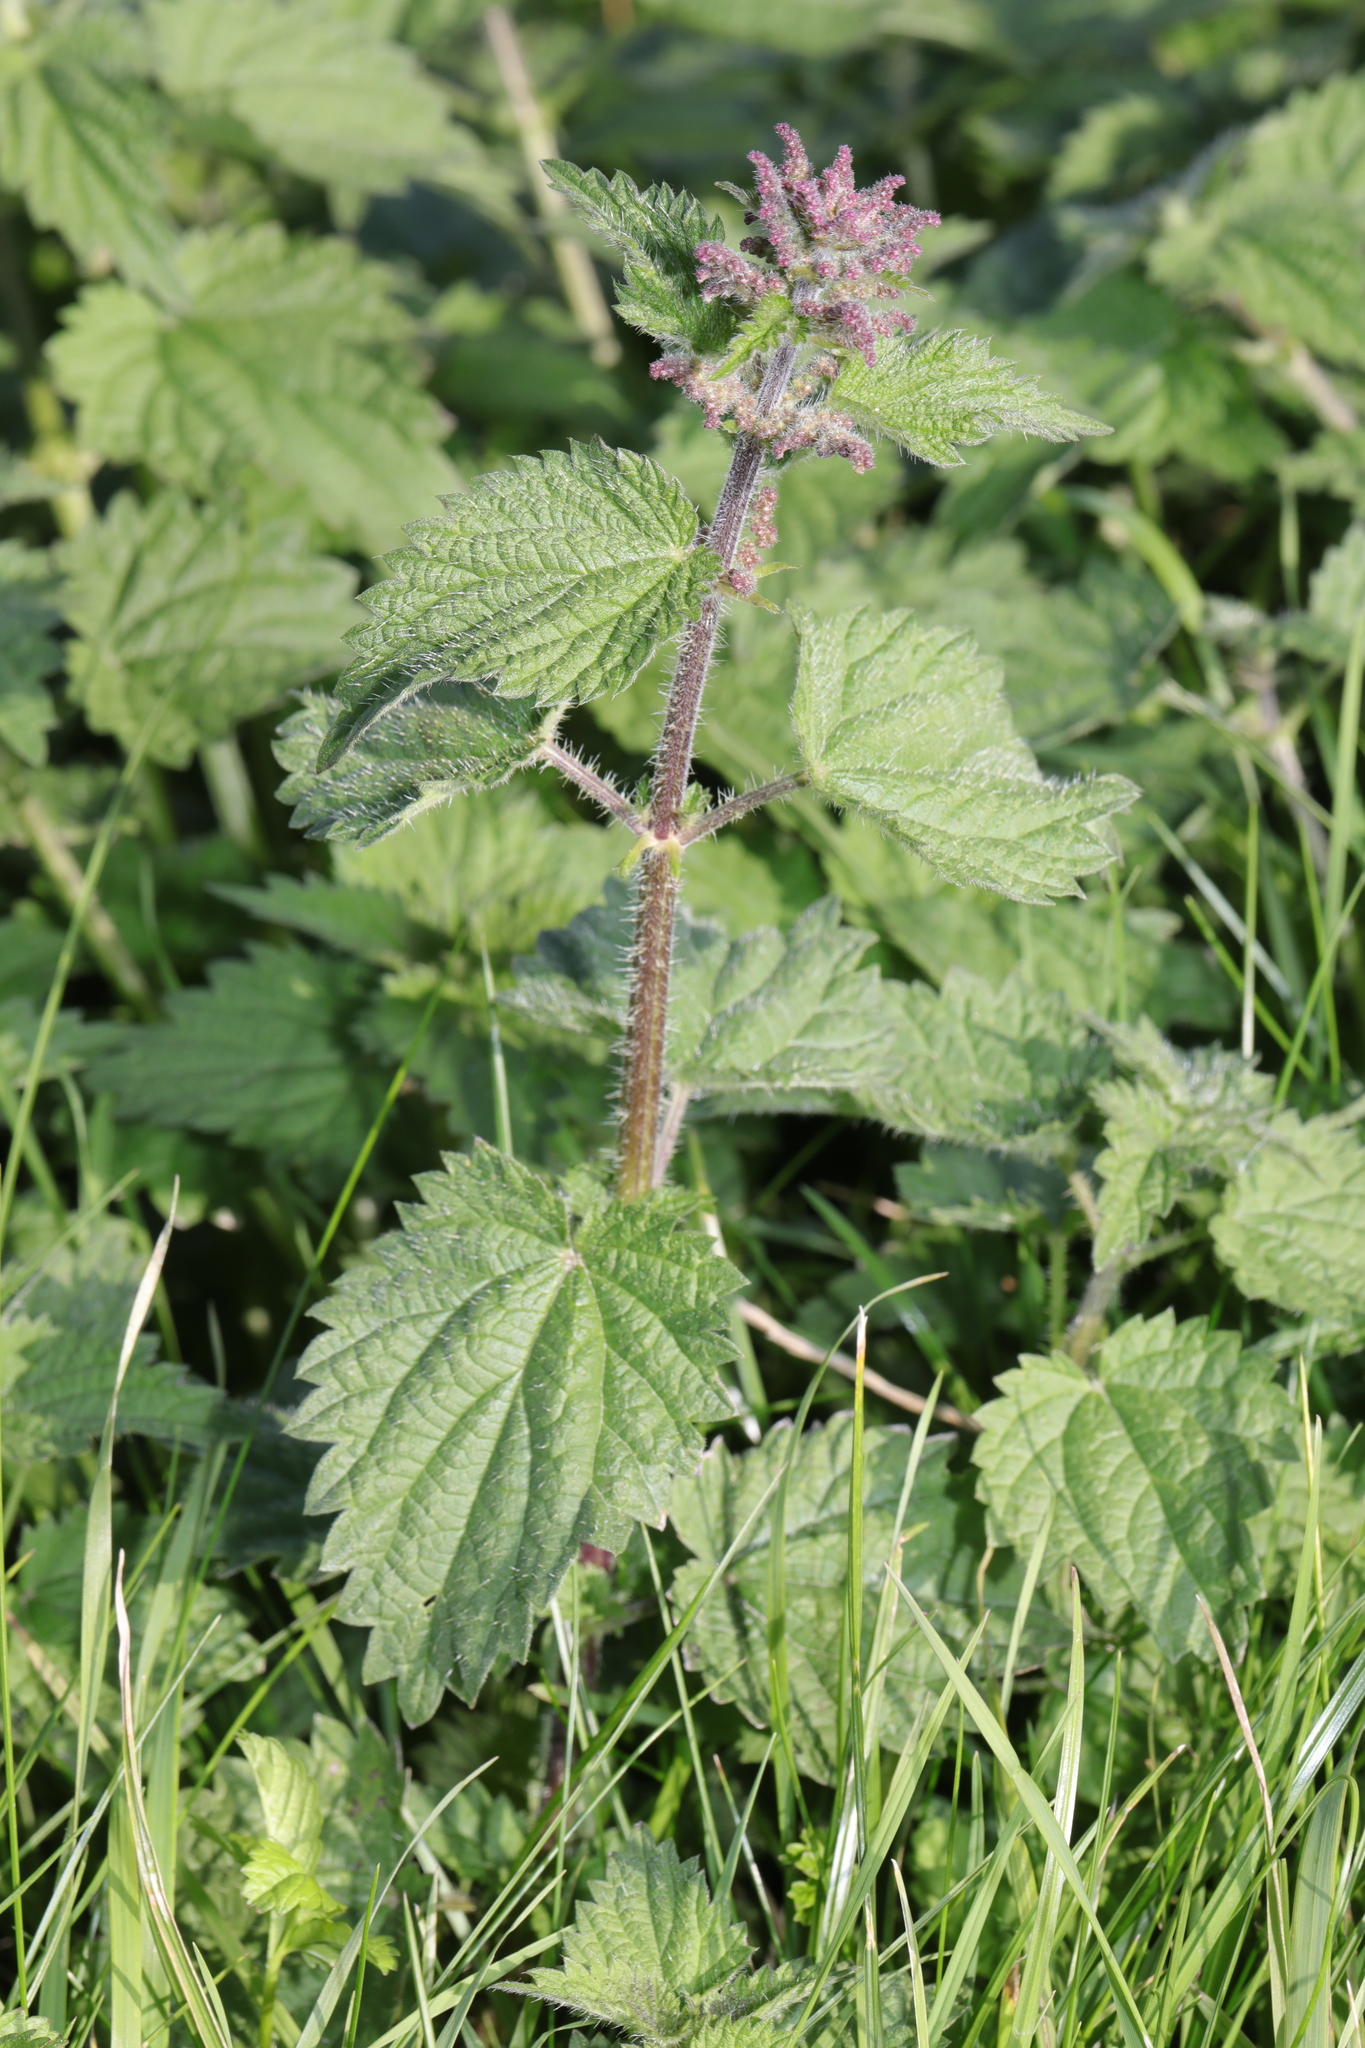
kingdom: Plantae
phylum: Tracheophyta
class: Magnoliopsida
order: Rosales
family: Urticaceae
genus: Urtica
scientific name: Urtica dioica
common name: Common nettle
